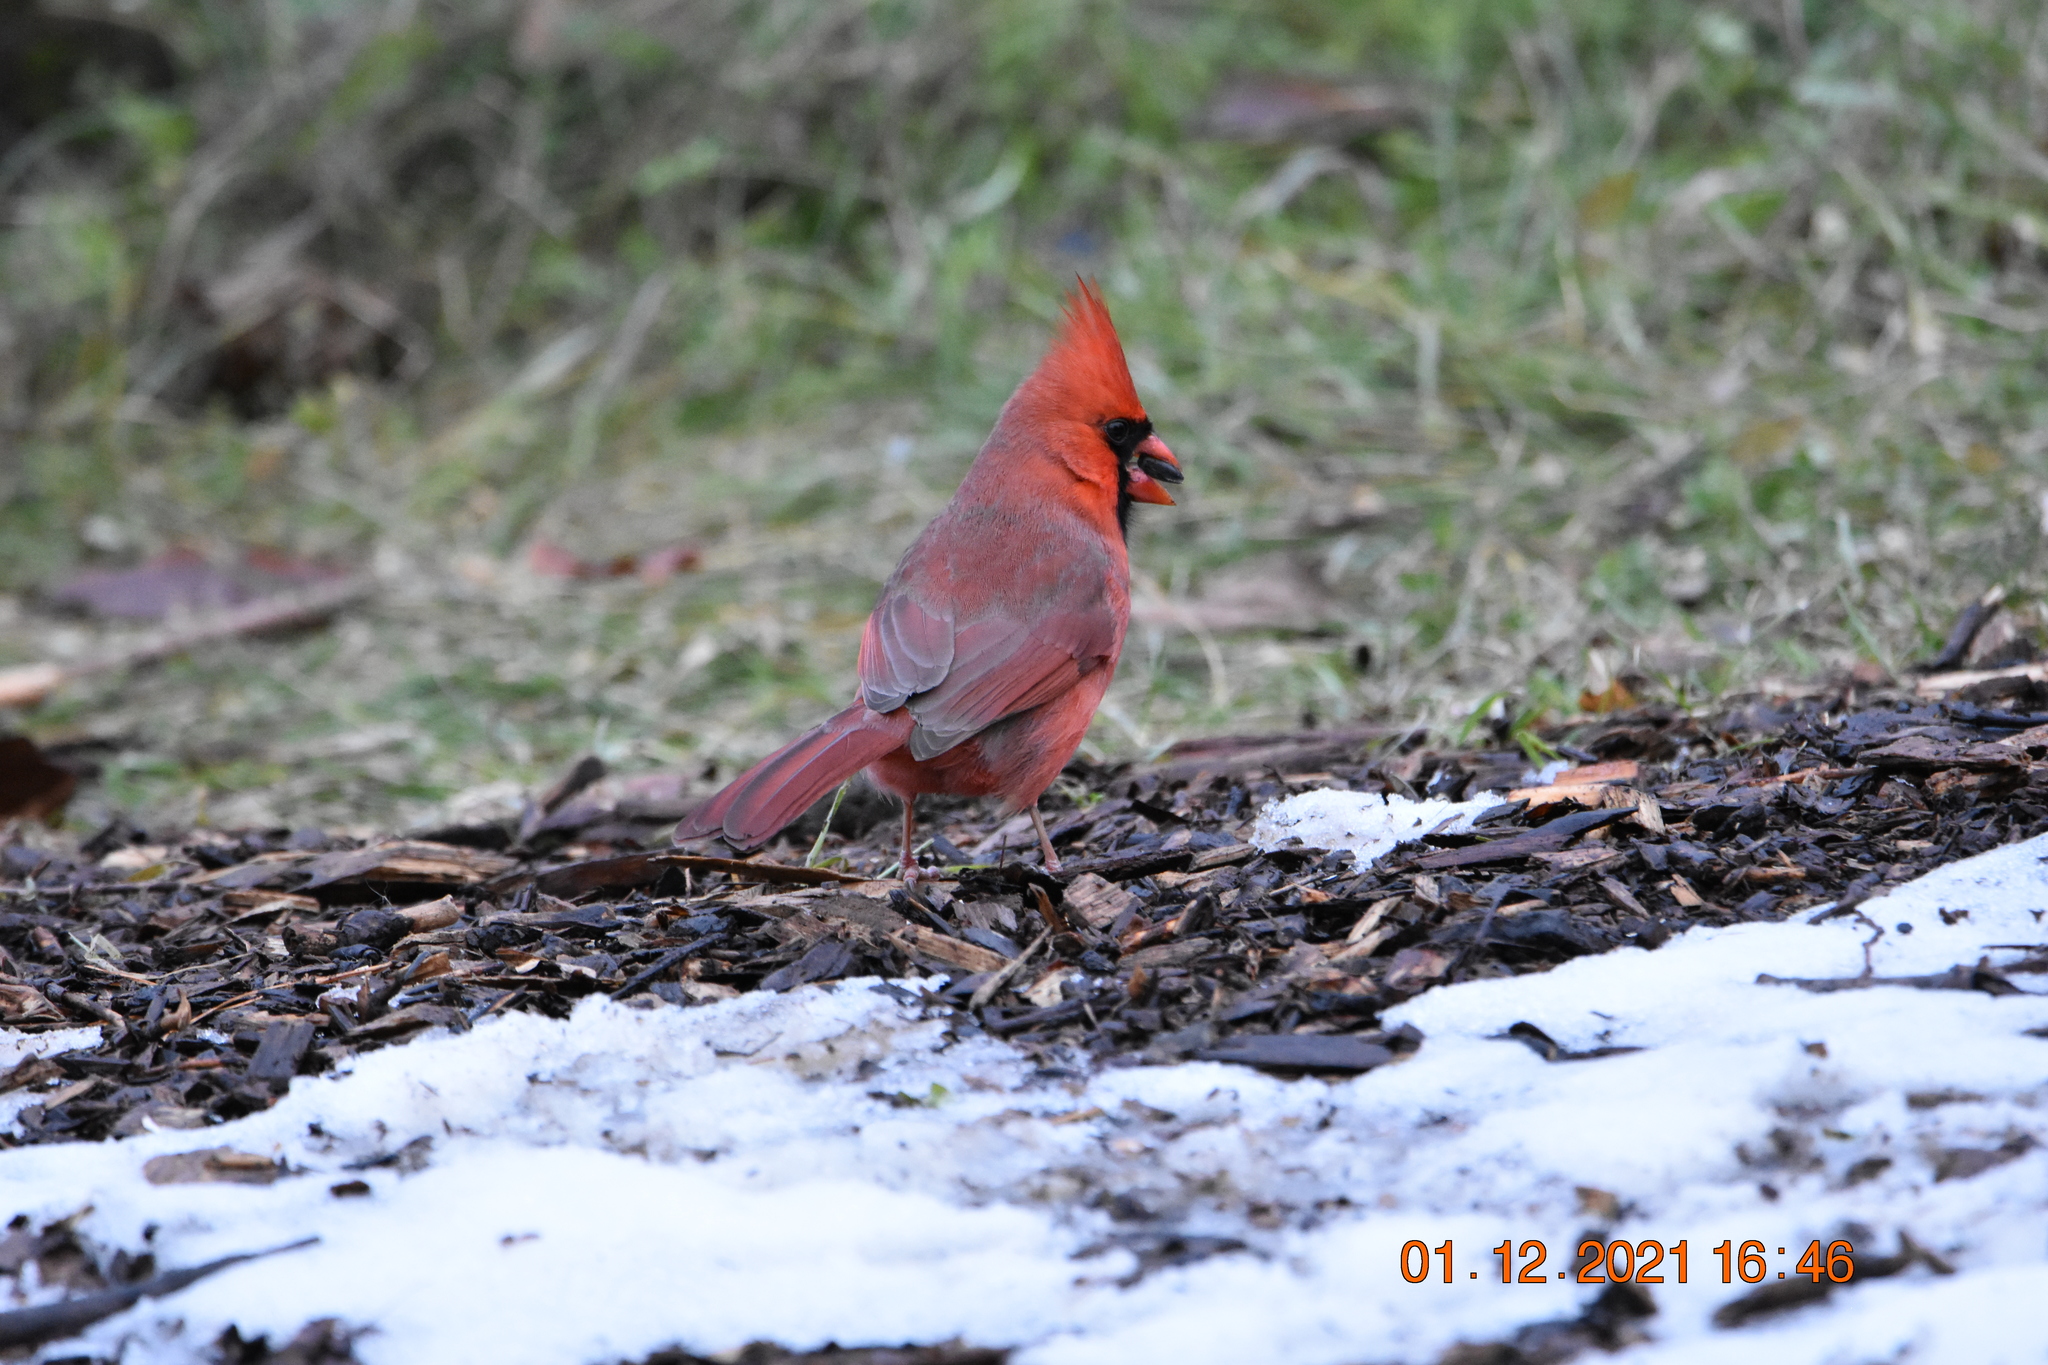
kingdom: Animalia
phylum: Chordata
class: Aves
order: Passeriformes
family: Cardinalidae
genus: Cardinalis
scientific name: Cardinalis cardinalis
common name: Northern cardinal
